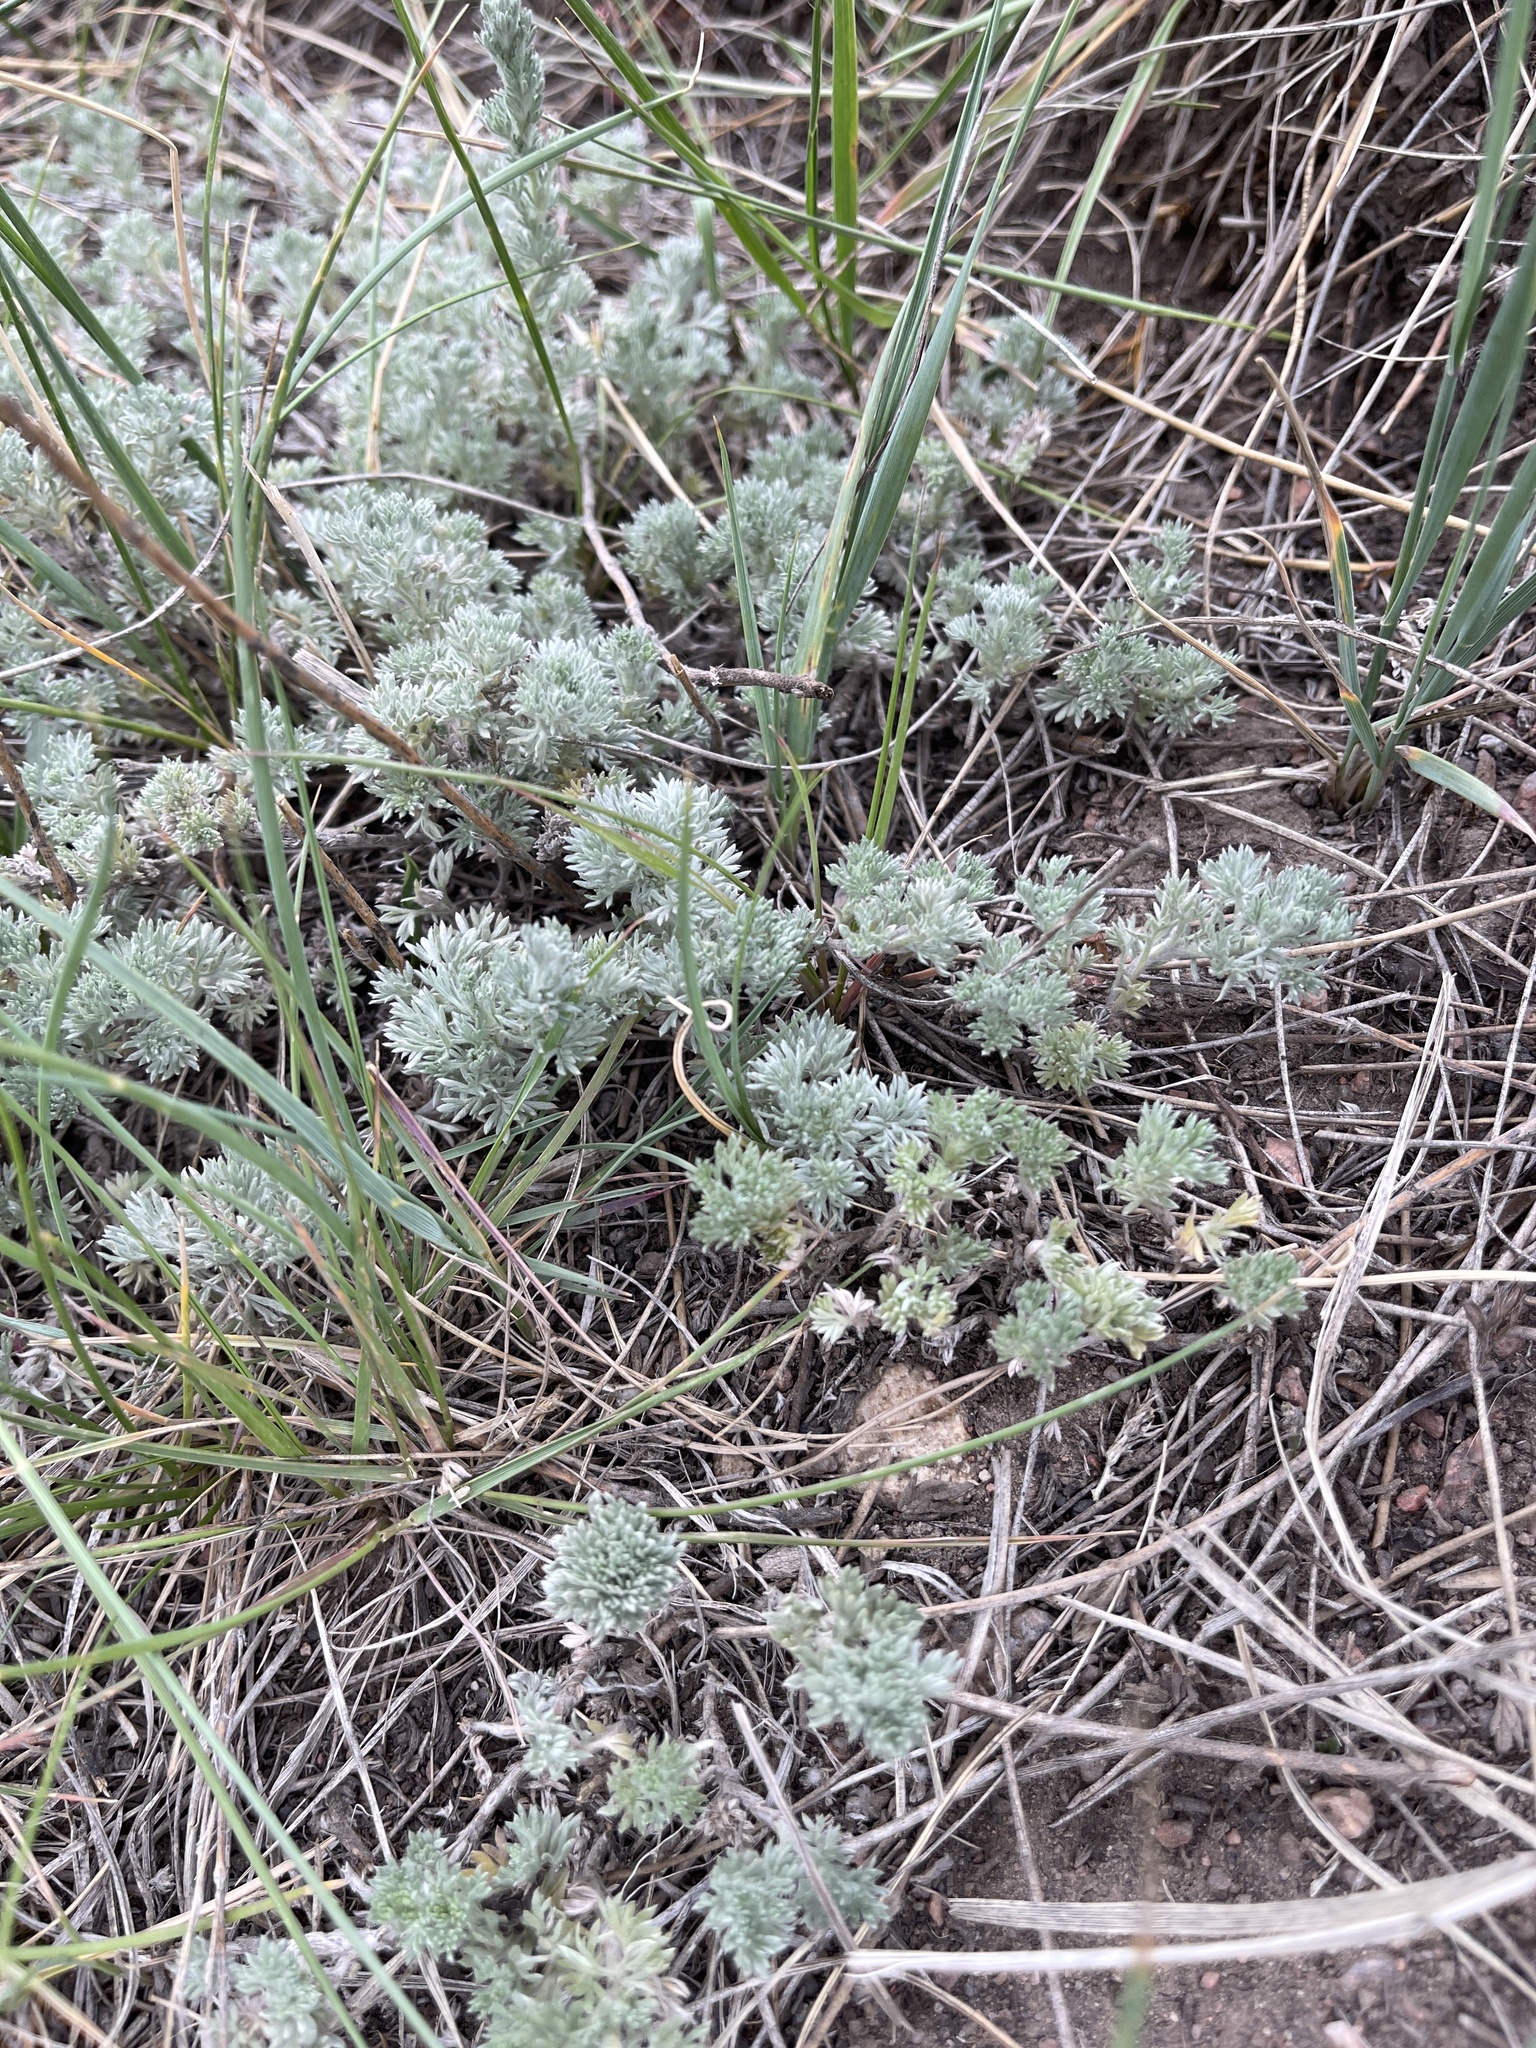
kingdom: Plantae
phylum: Tracheophyta
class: Magnoliopsida
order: Asterales
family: Asteraceae
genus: Artemisia
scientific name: Artemisia frigida
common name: Prairie sagewort
